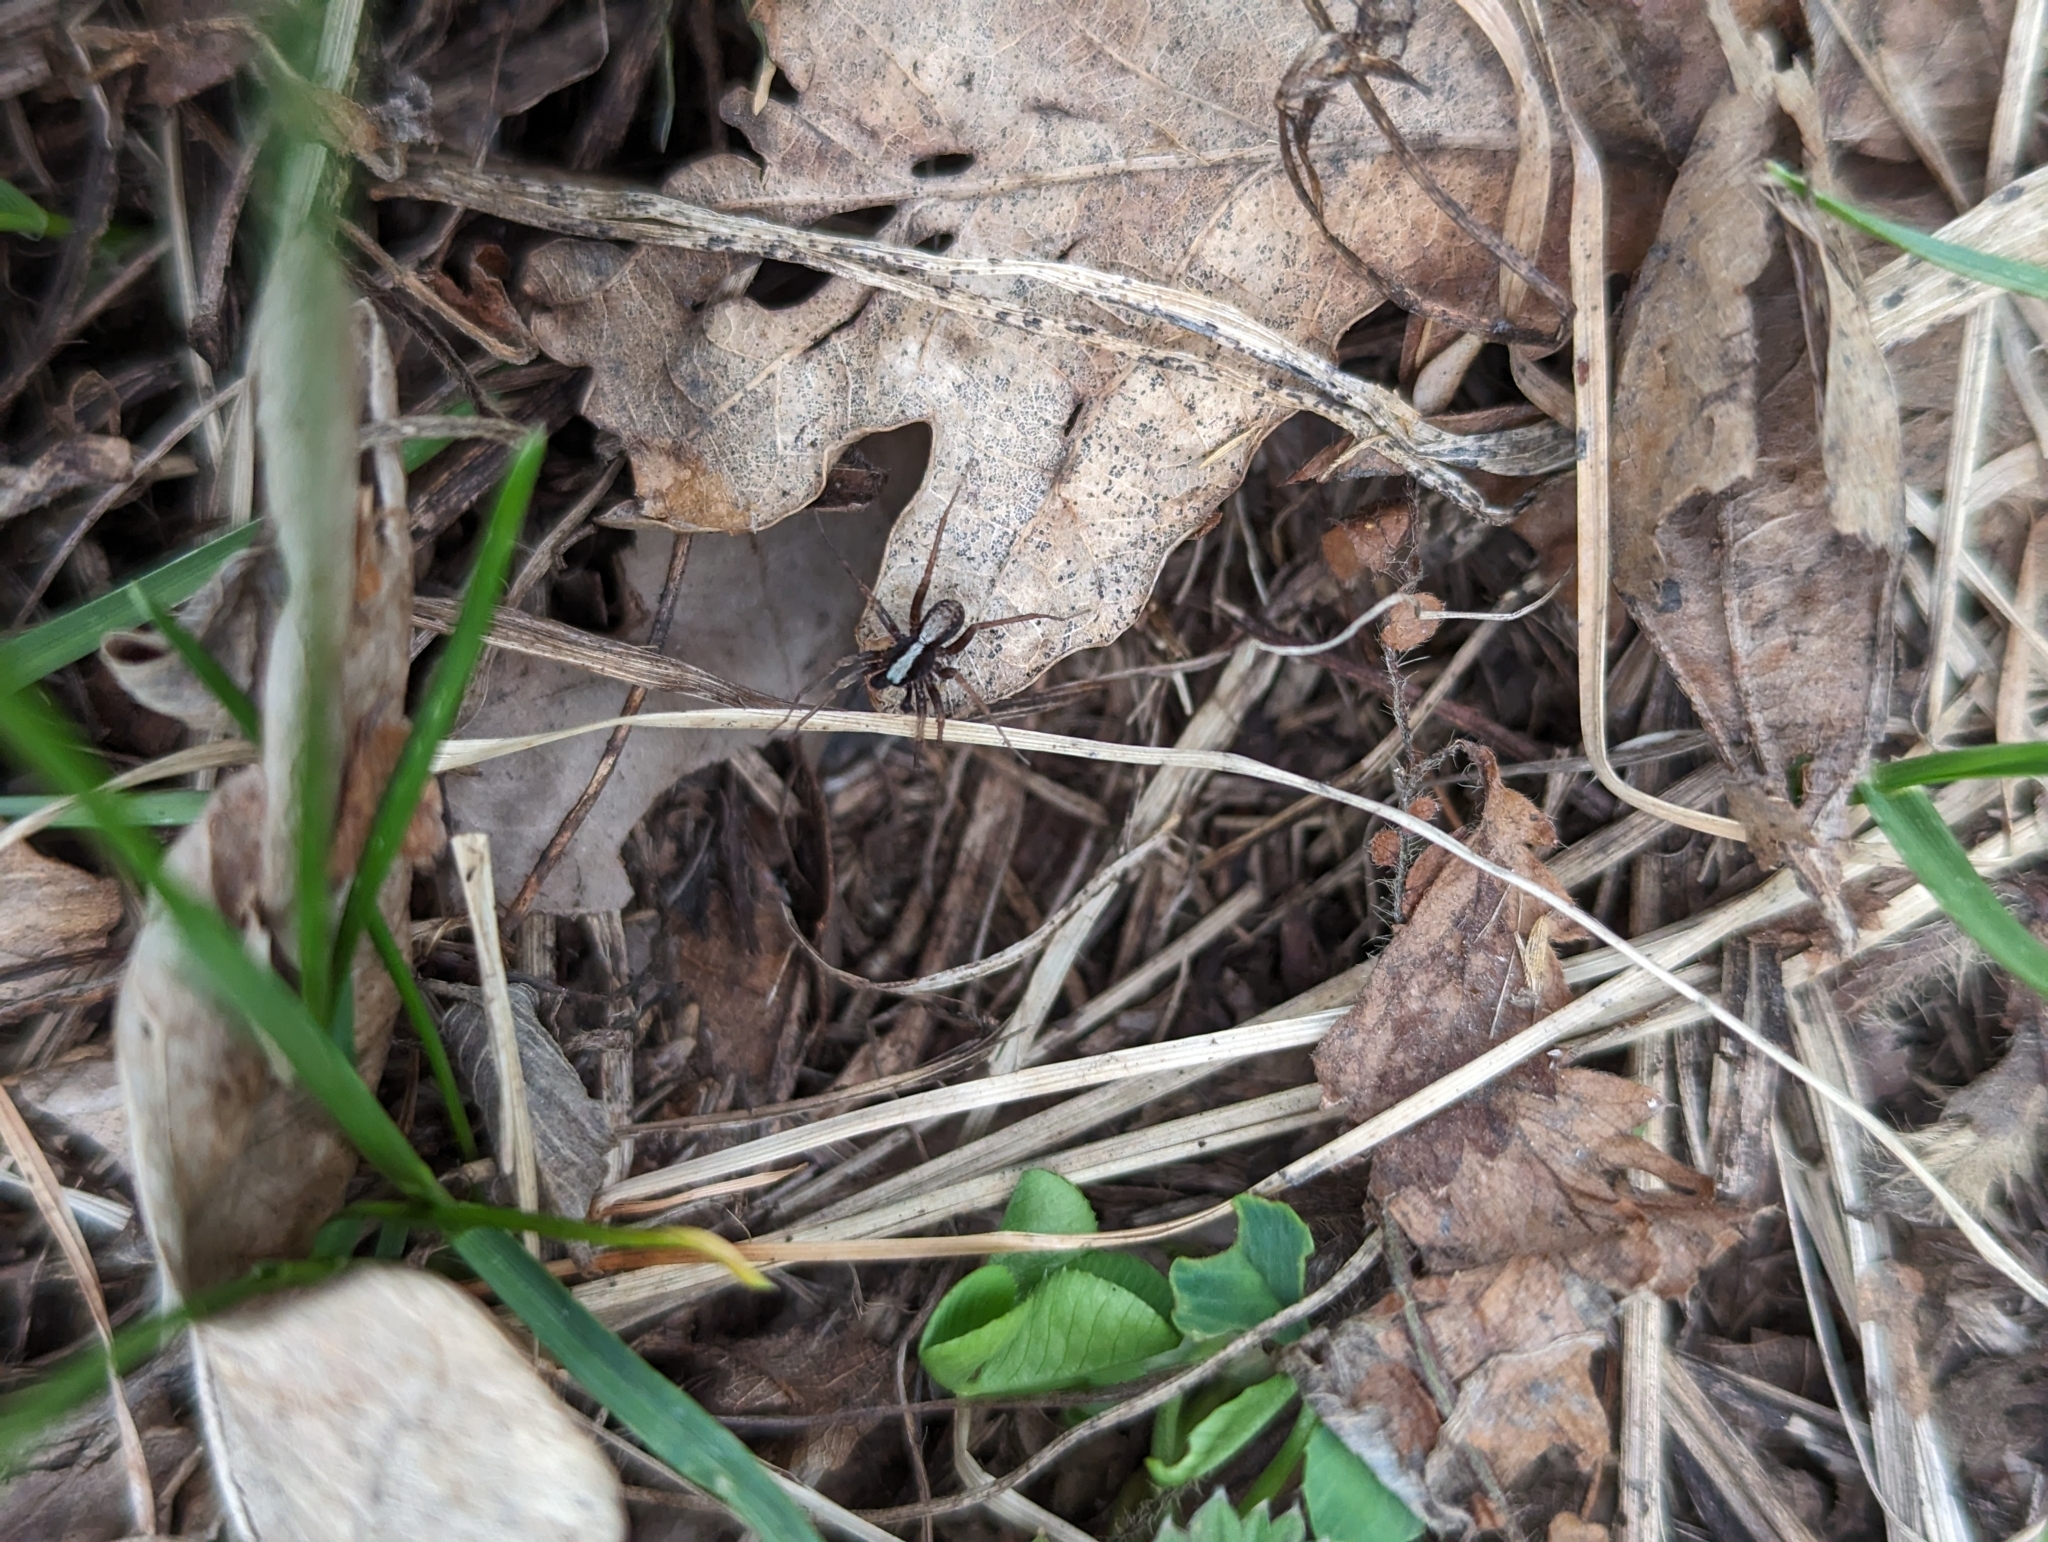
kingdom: Animalia
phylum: Arthropoda
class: Arachnida
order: Araneae
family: Lycosidae
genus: Pardosa
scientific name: Pardosa
